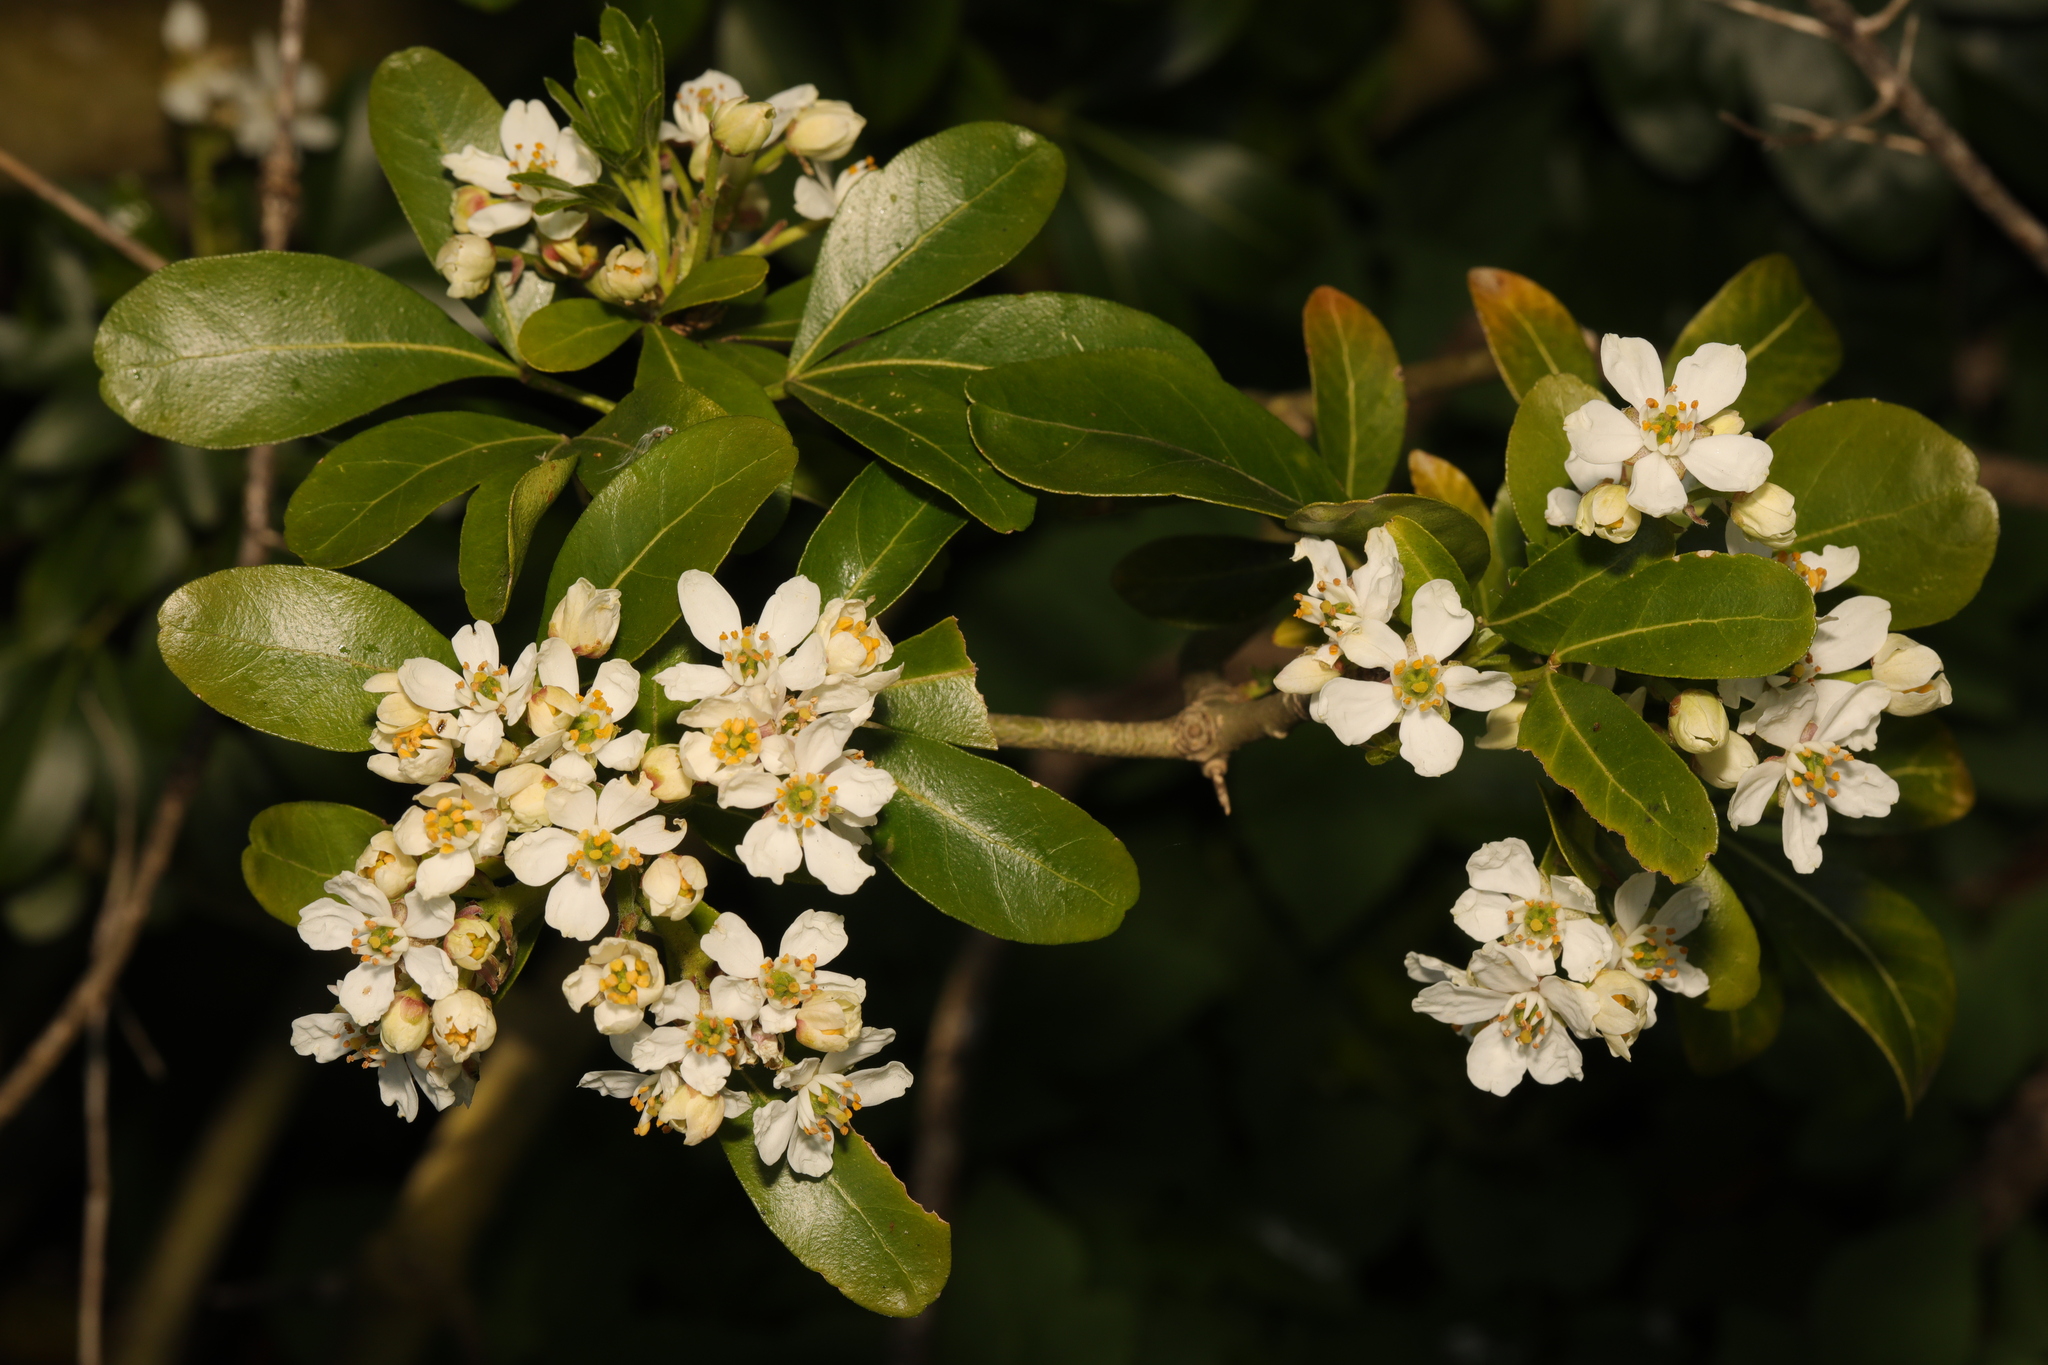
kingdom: Plantae
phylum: Tracheophyta
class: Magnoliopsida
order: Sapindales
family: Rutaceae
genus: Choisya
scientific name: Choisya ternata
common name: Mexican orange
